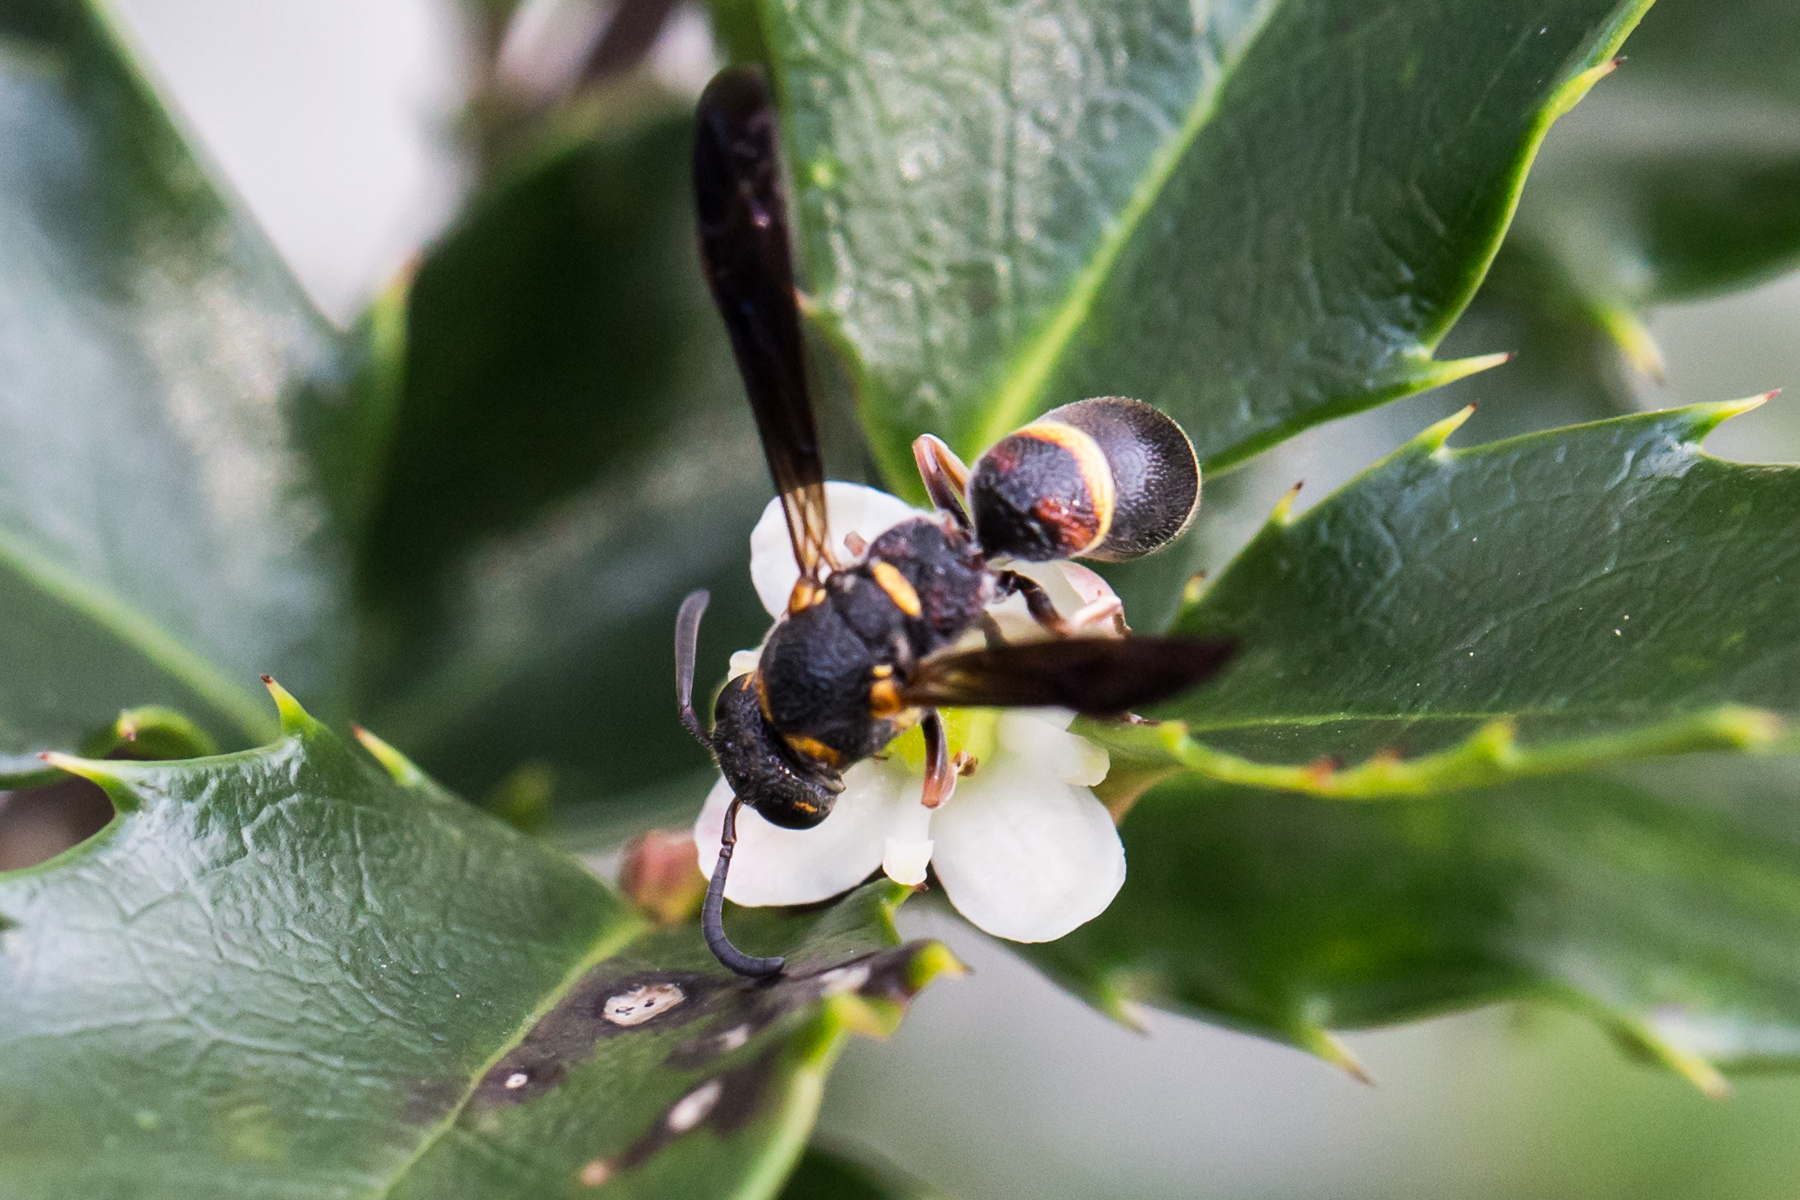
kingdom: Animalia
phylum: Arthropoda
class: Insecta
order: Hymenoptera
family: Eumenidae
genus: Parancistrocerus
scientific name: Parancistrocerus histrio
